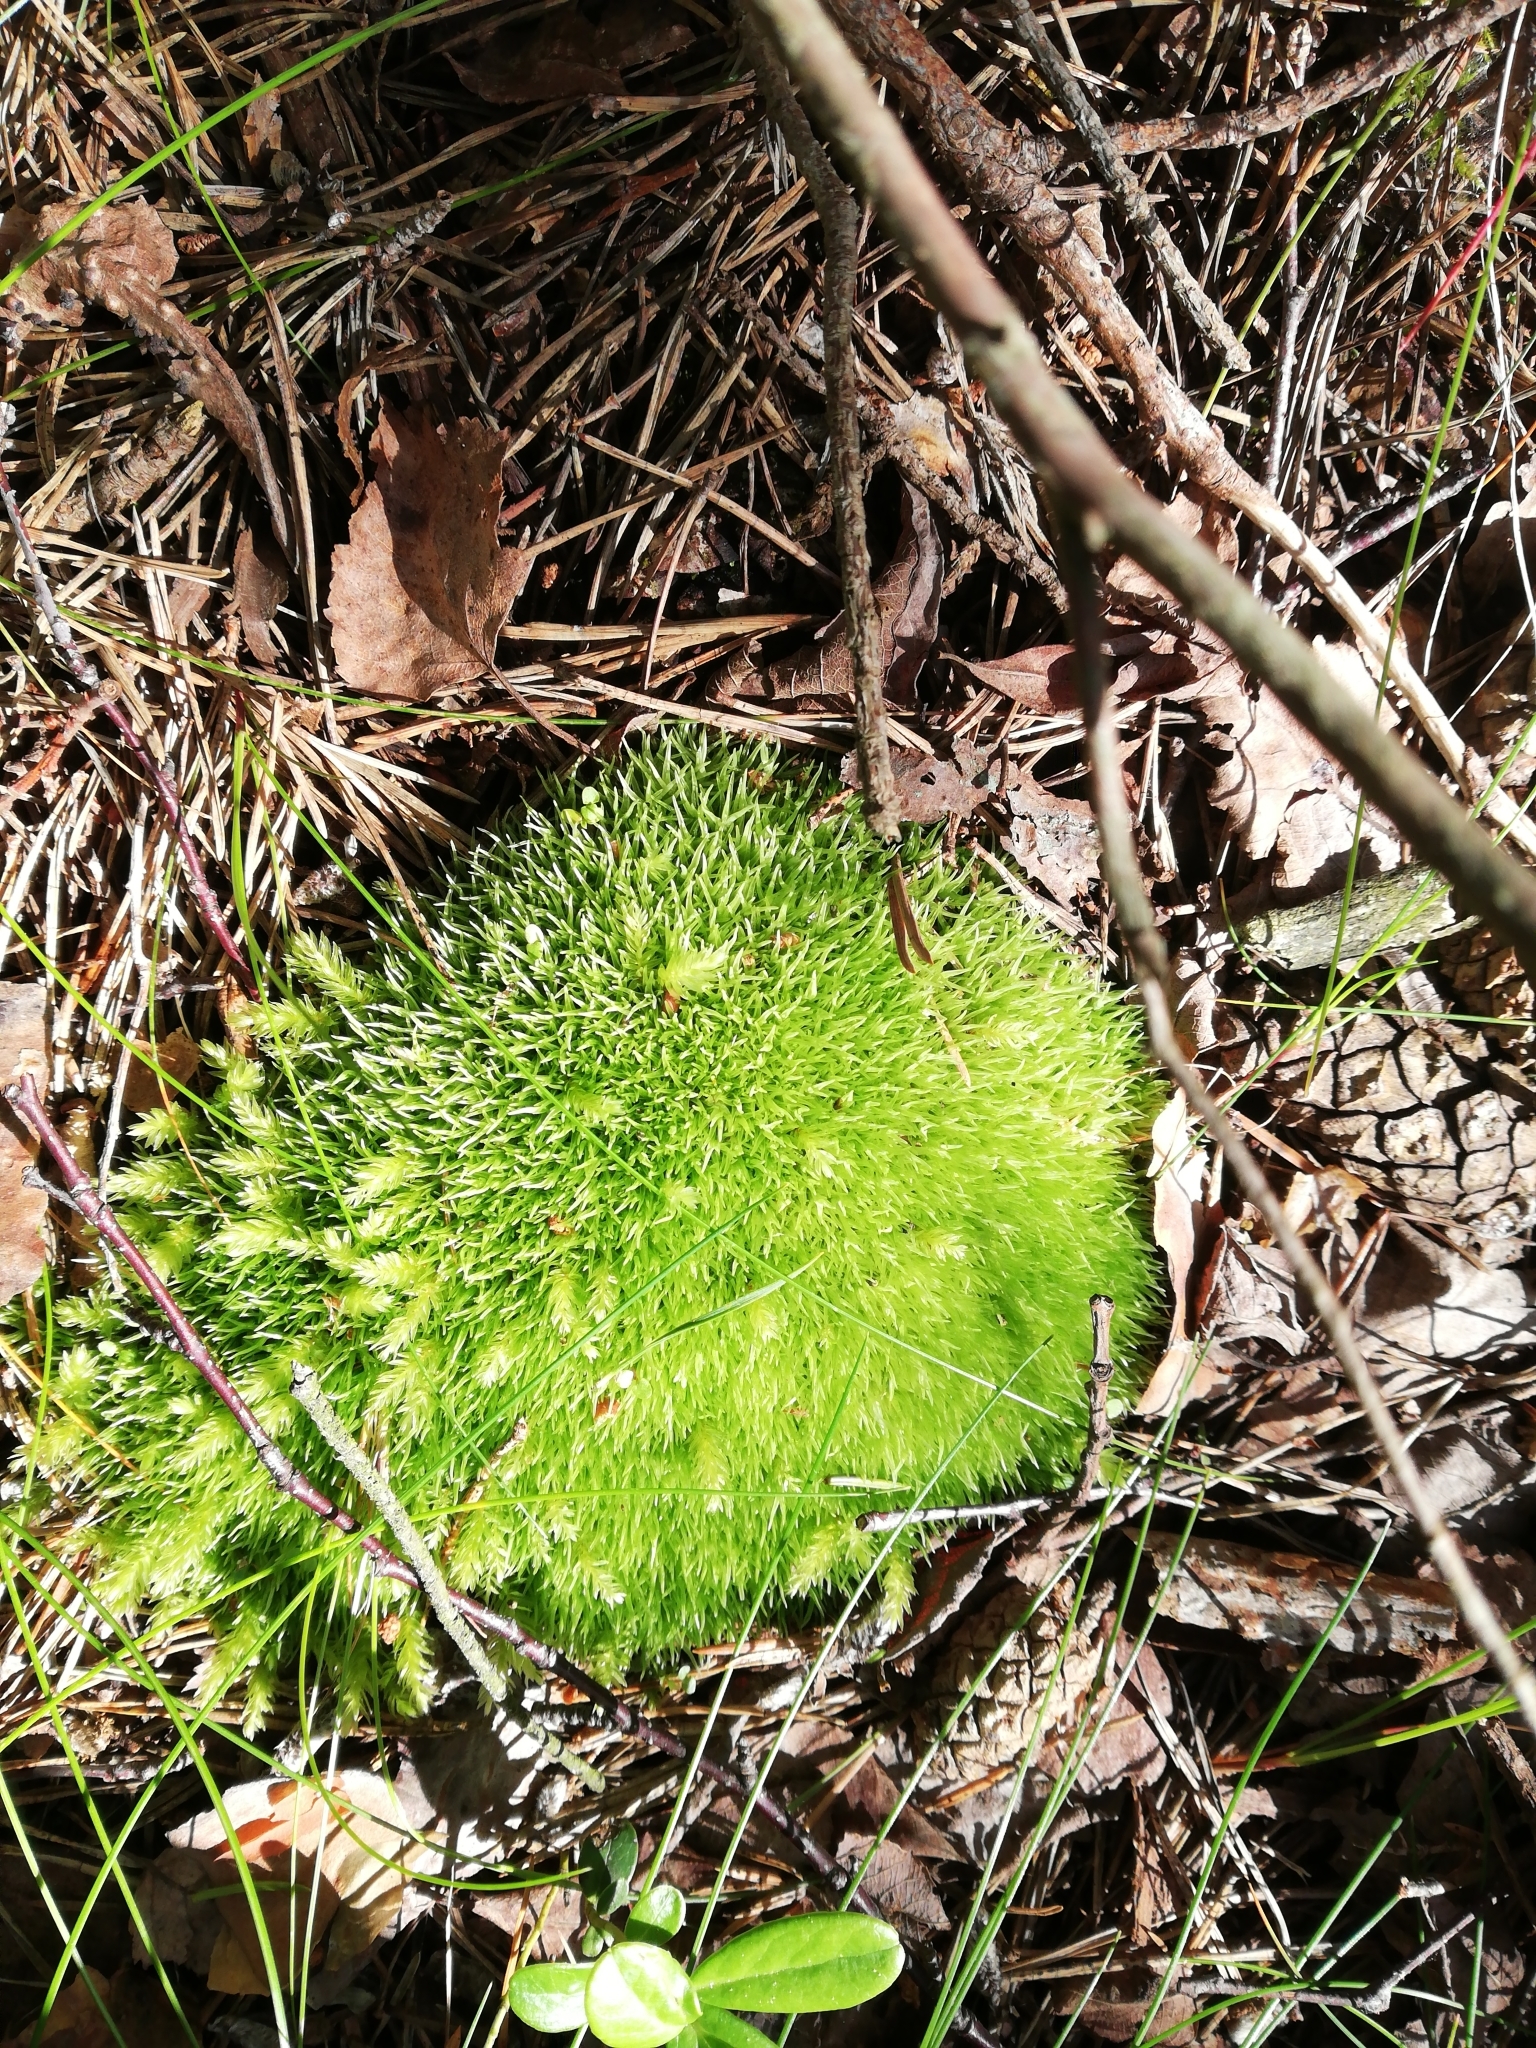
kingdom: Plantae
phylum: Bryophyta
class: Bryopsida
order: Dicranales
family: Leucobryaceae
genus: Leucobryum
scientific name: Leucobryum glaucum
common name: Large white-moss
